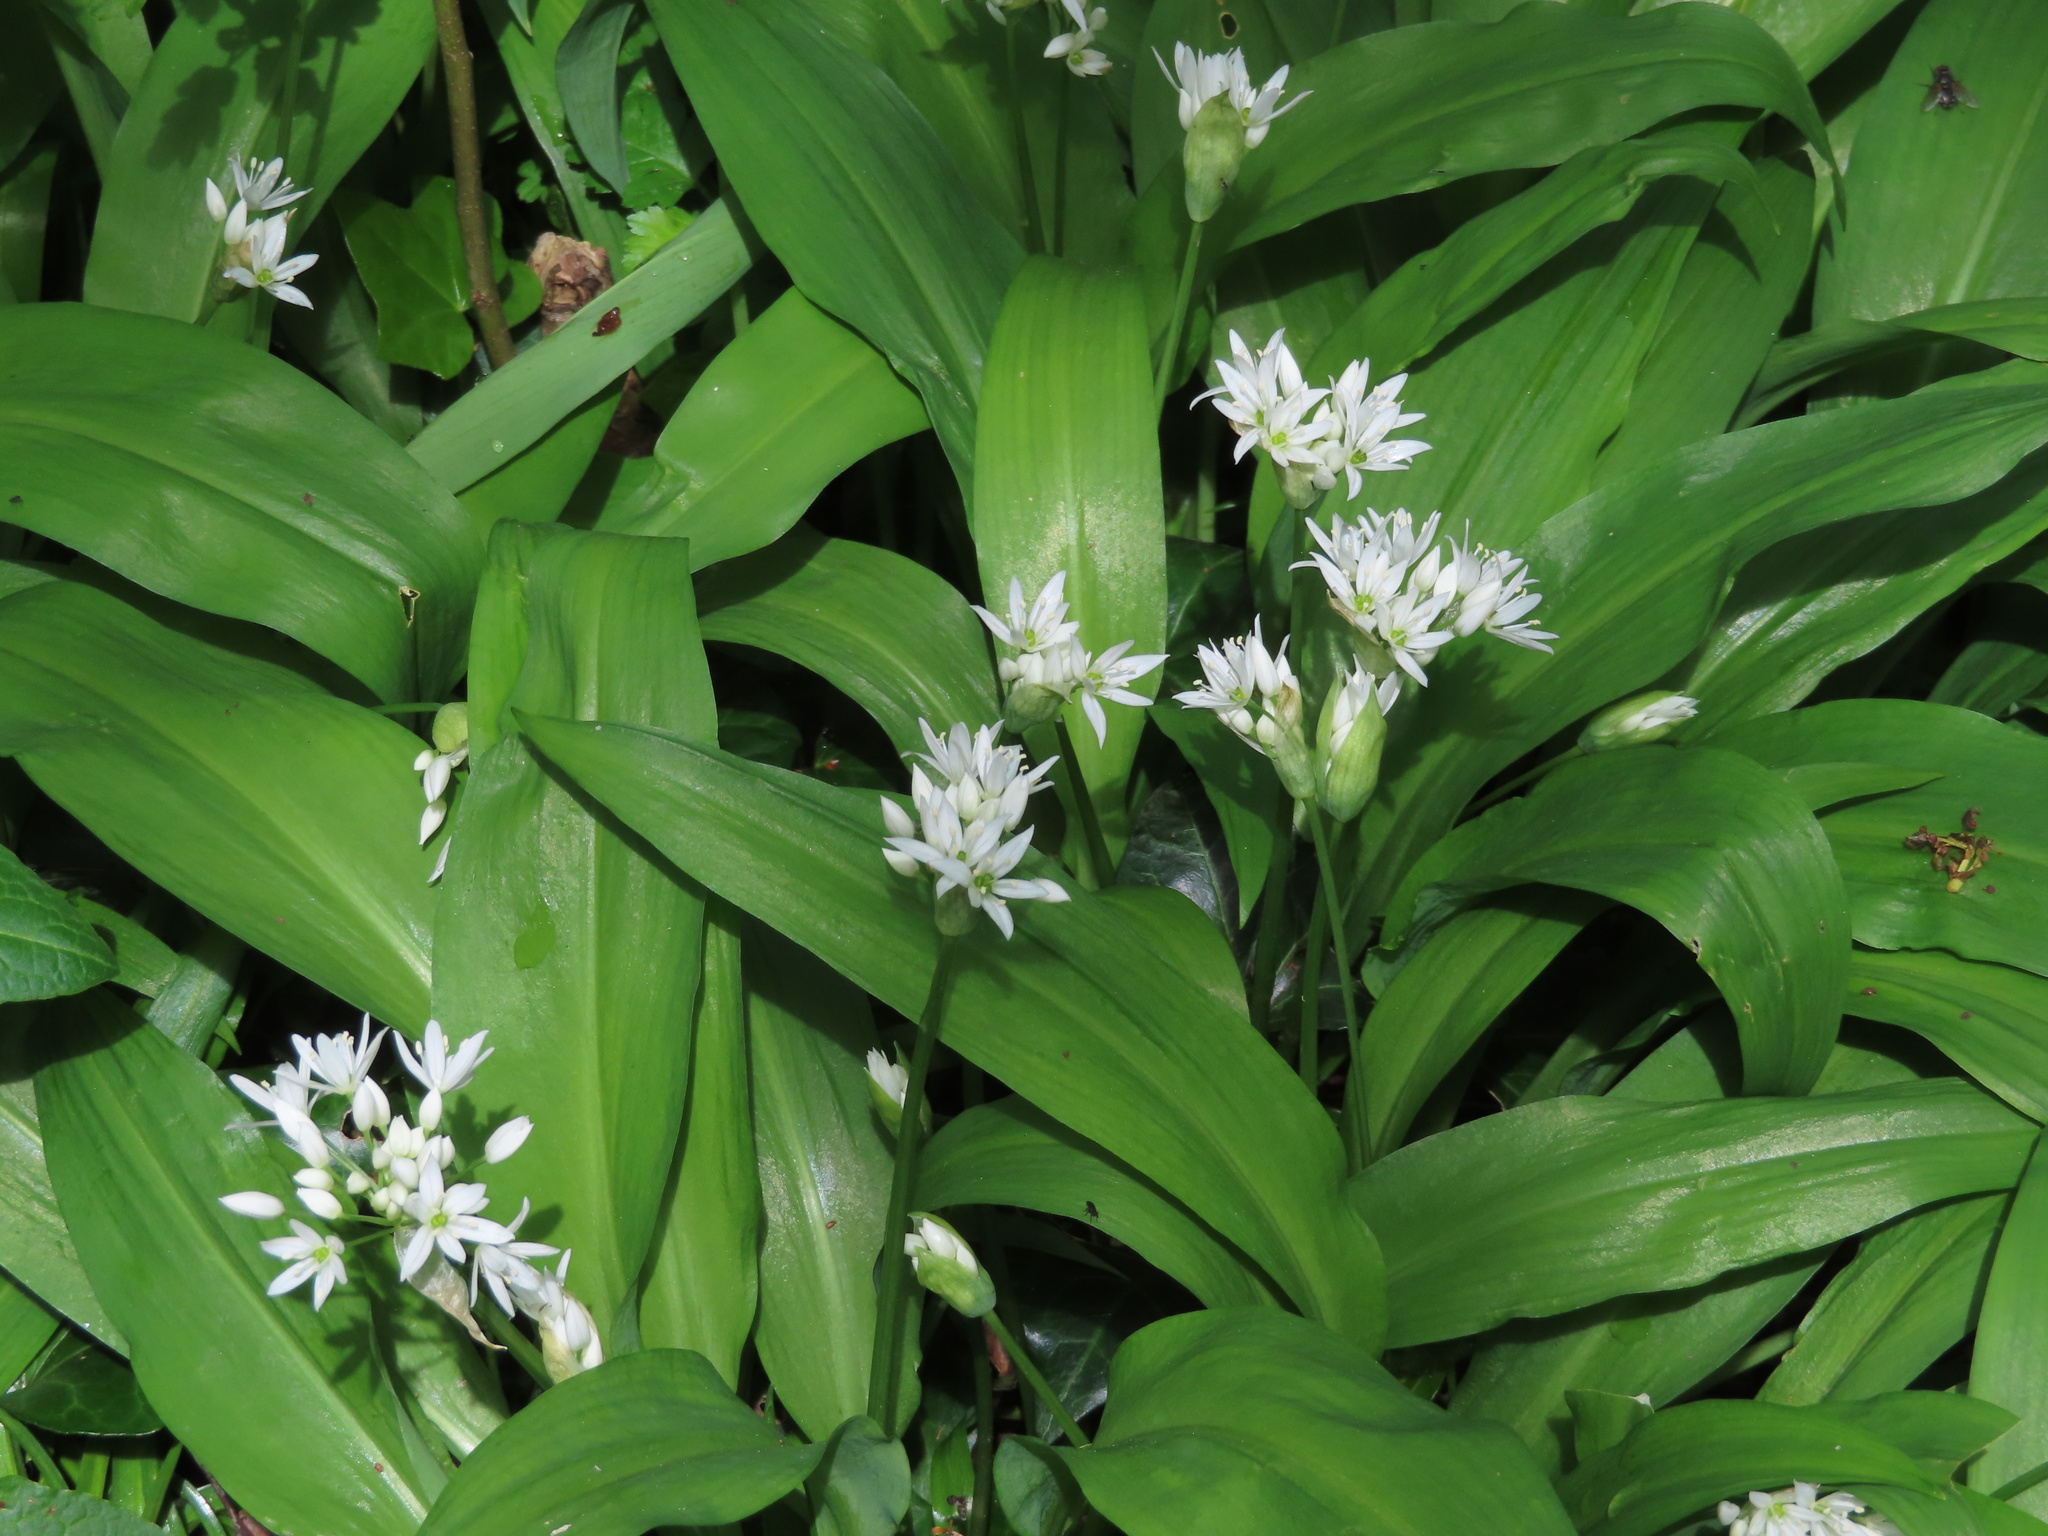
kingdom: Plantae
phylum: Tracheophyta
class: Liliopsida
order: Asparagales
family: Amaryllidaceae
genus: Allium
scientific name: Allium ursinum
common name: Ramsons
